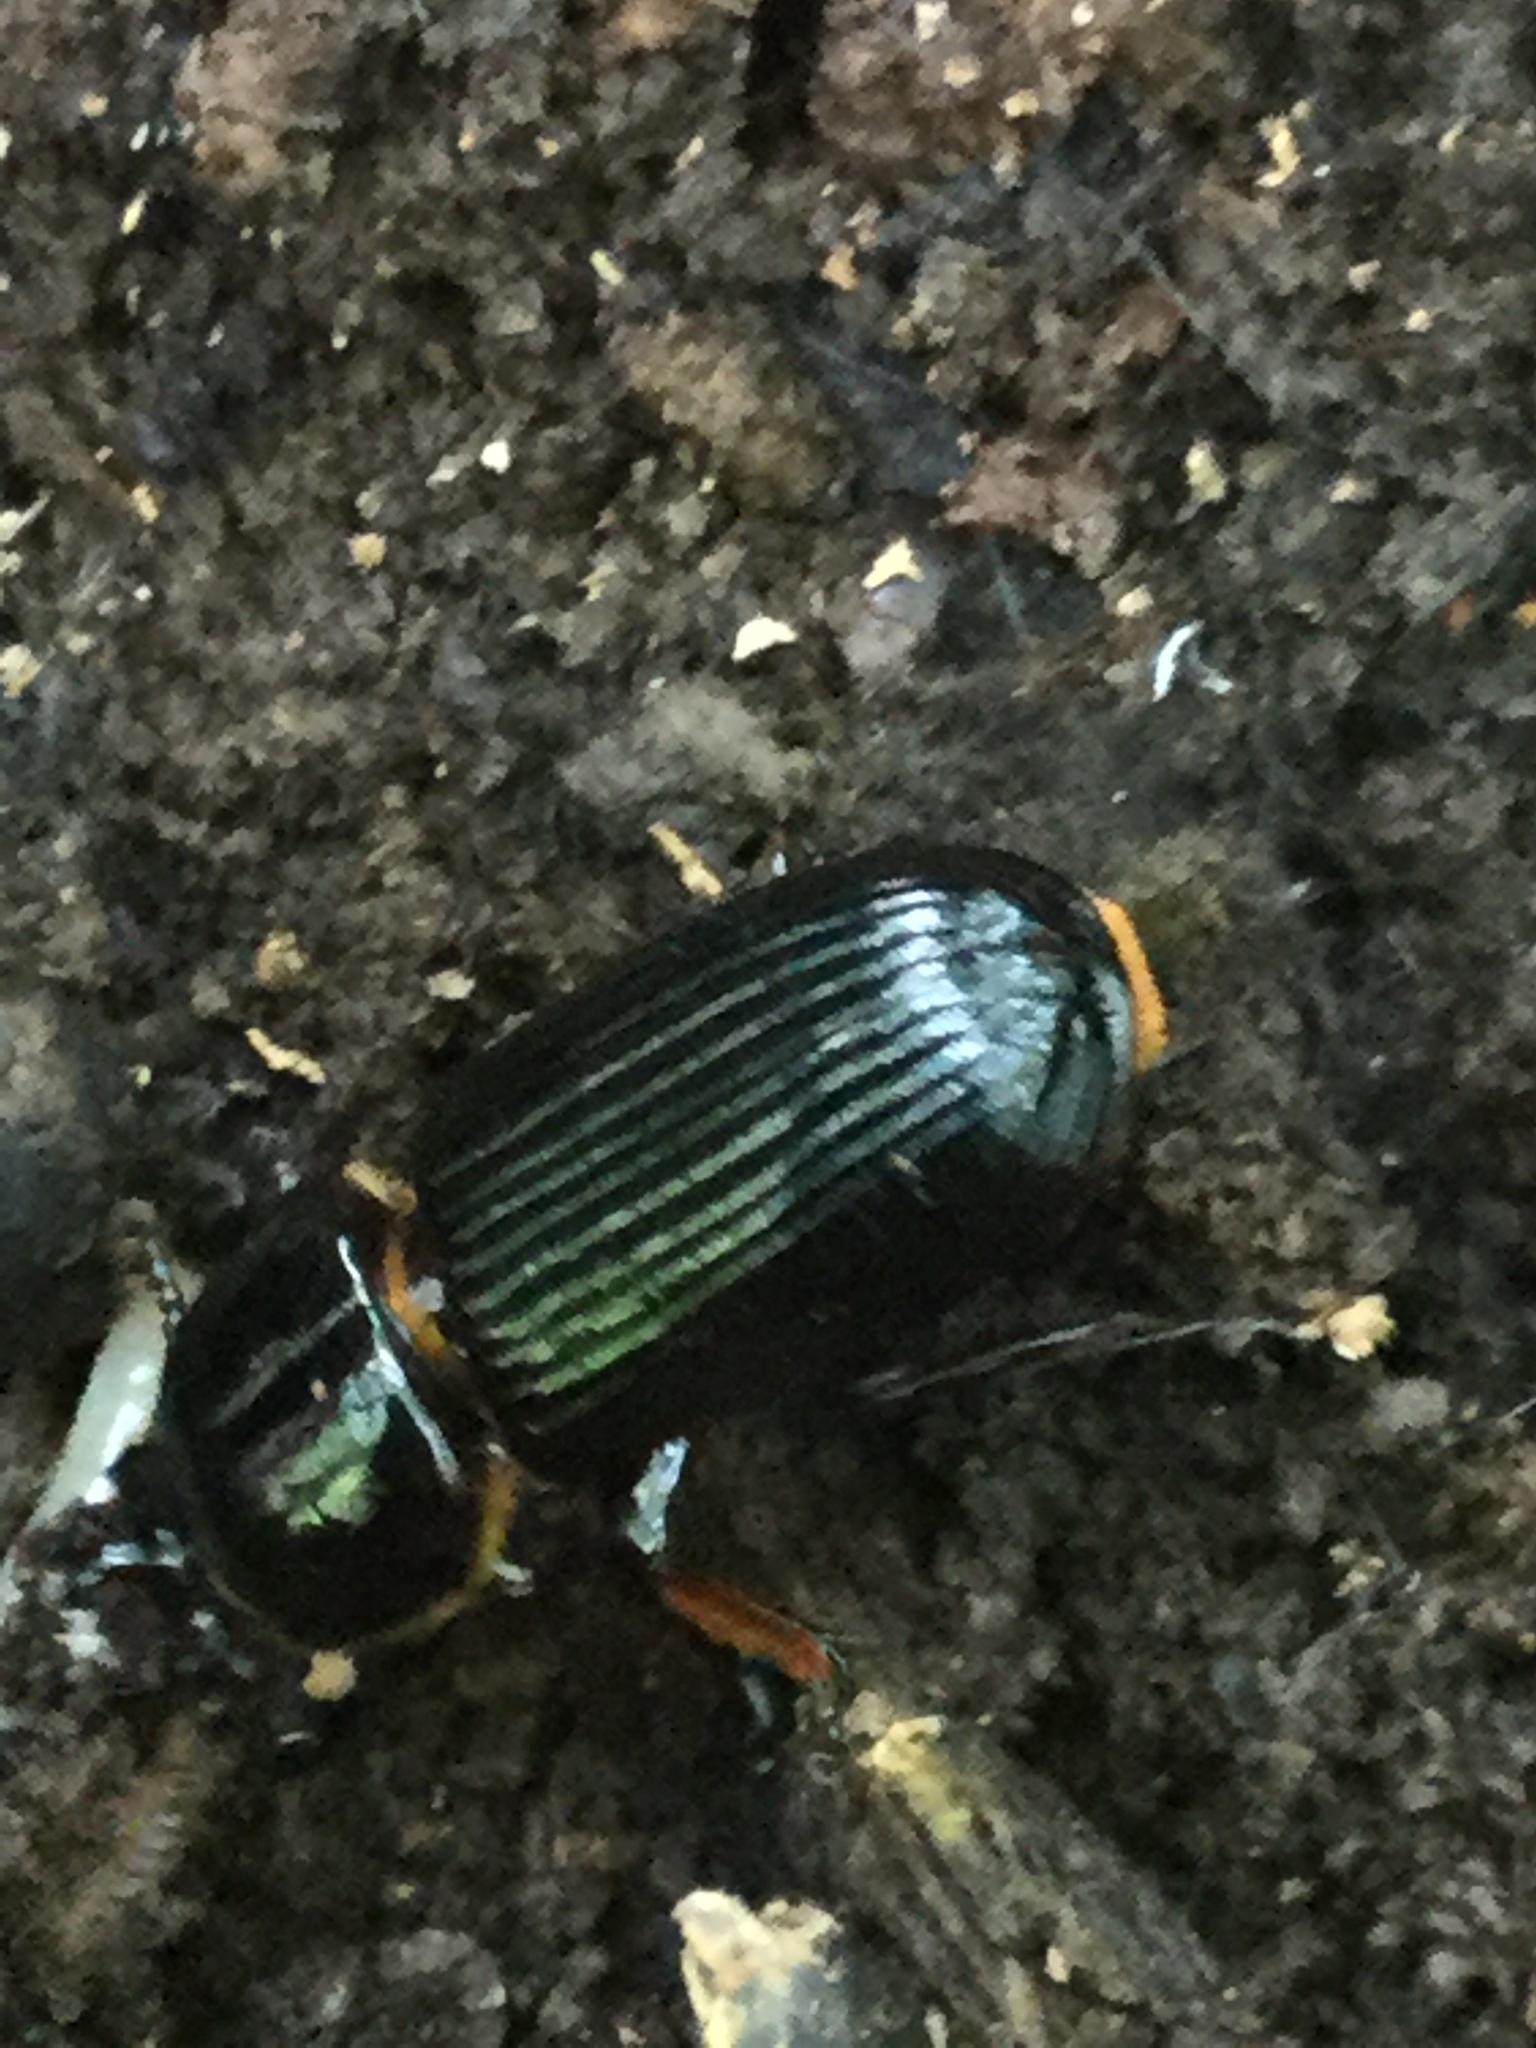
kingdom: Animalia
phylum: Arthropoda
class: Insecta
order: Coleoptera
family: Passalidae
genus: Odontotaenius
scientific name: Odontotaenius disjunctus
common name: Patent leather beetle
